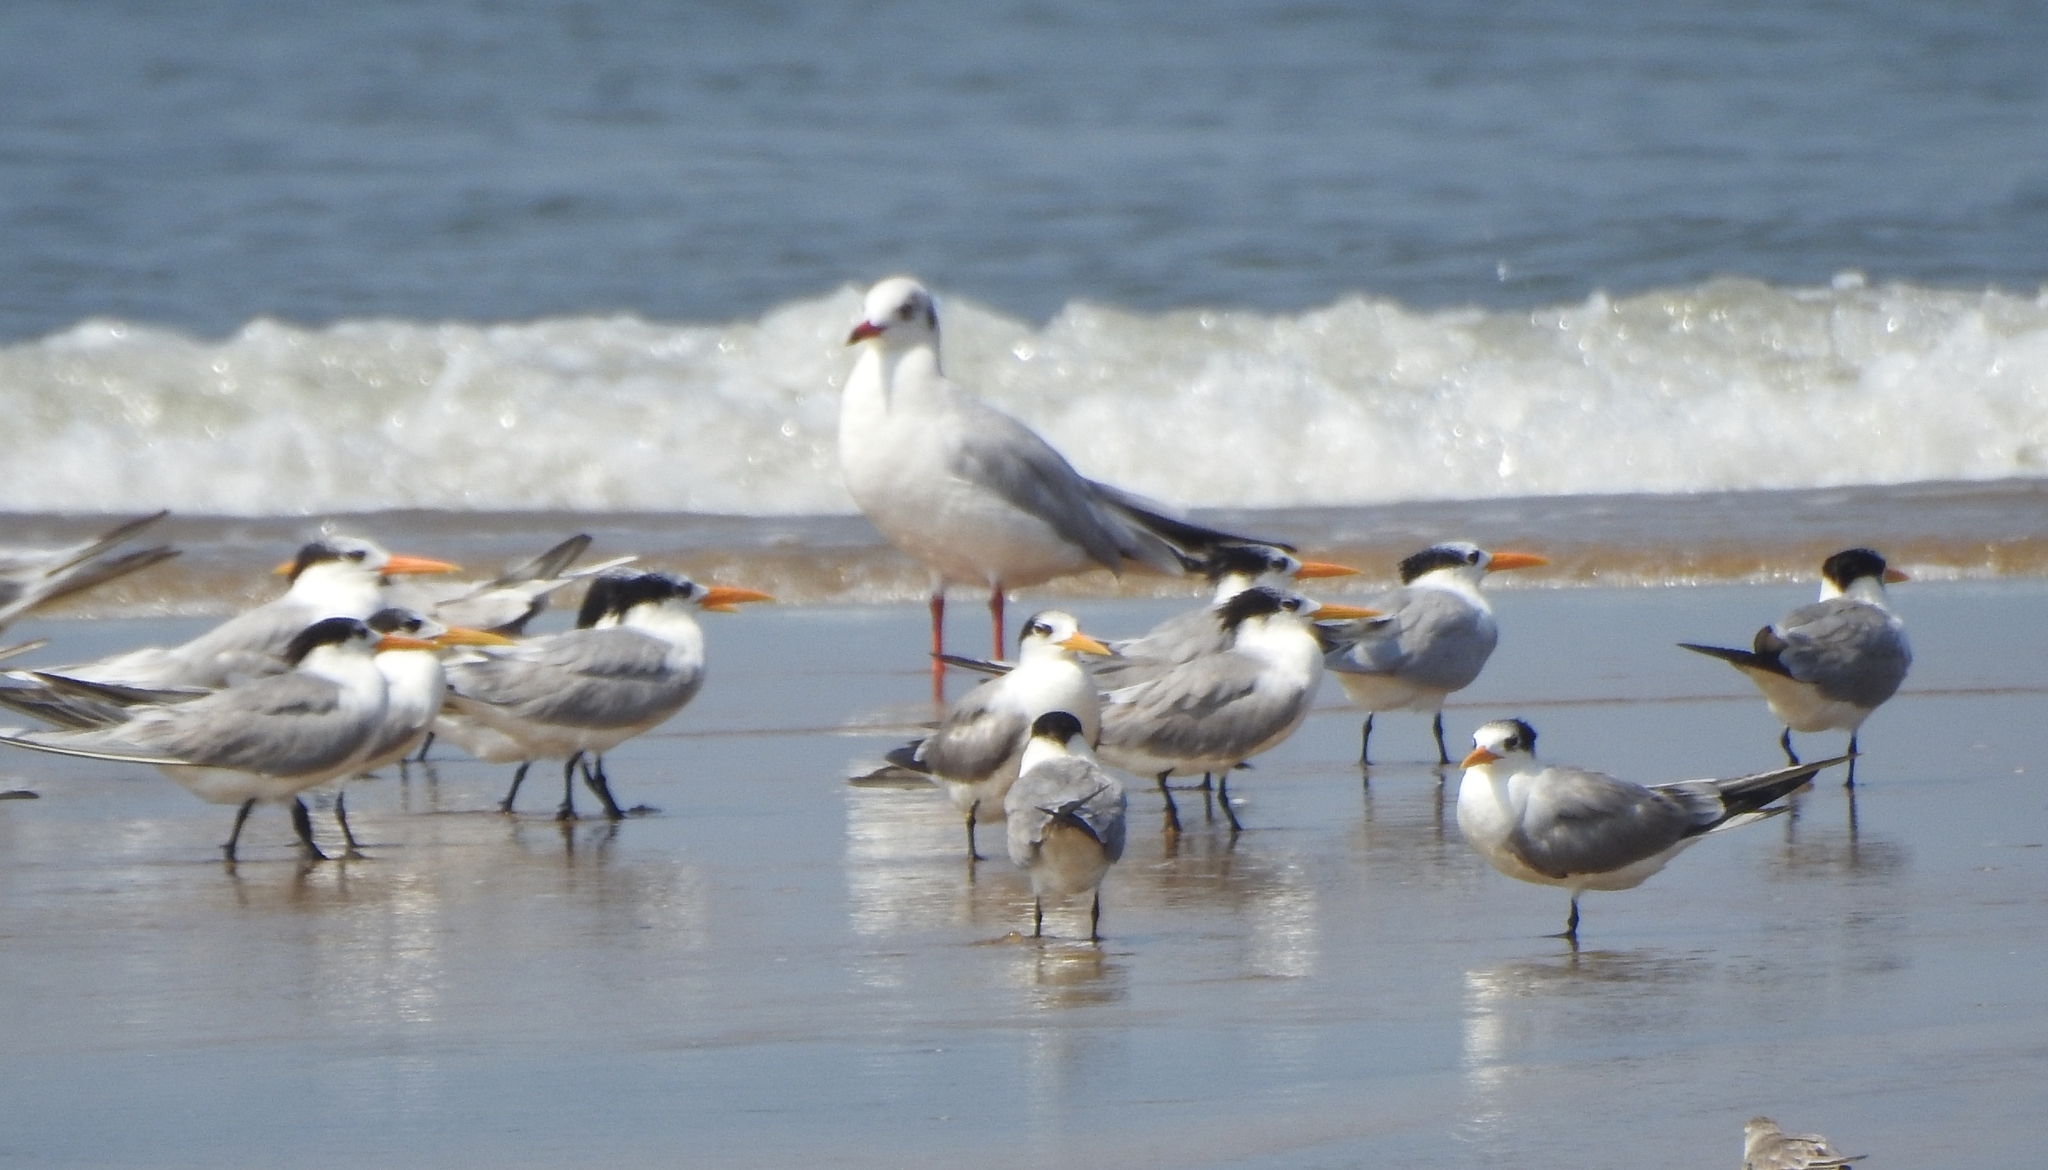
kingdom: Animalia
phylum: Chordata
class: Aves
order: Charadriiformes
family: Laridae
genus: Thalasseus
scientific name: Thalasseus bengalensis
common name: Lesser crested tern
